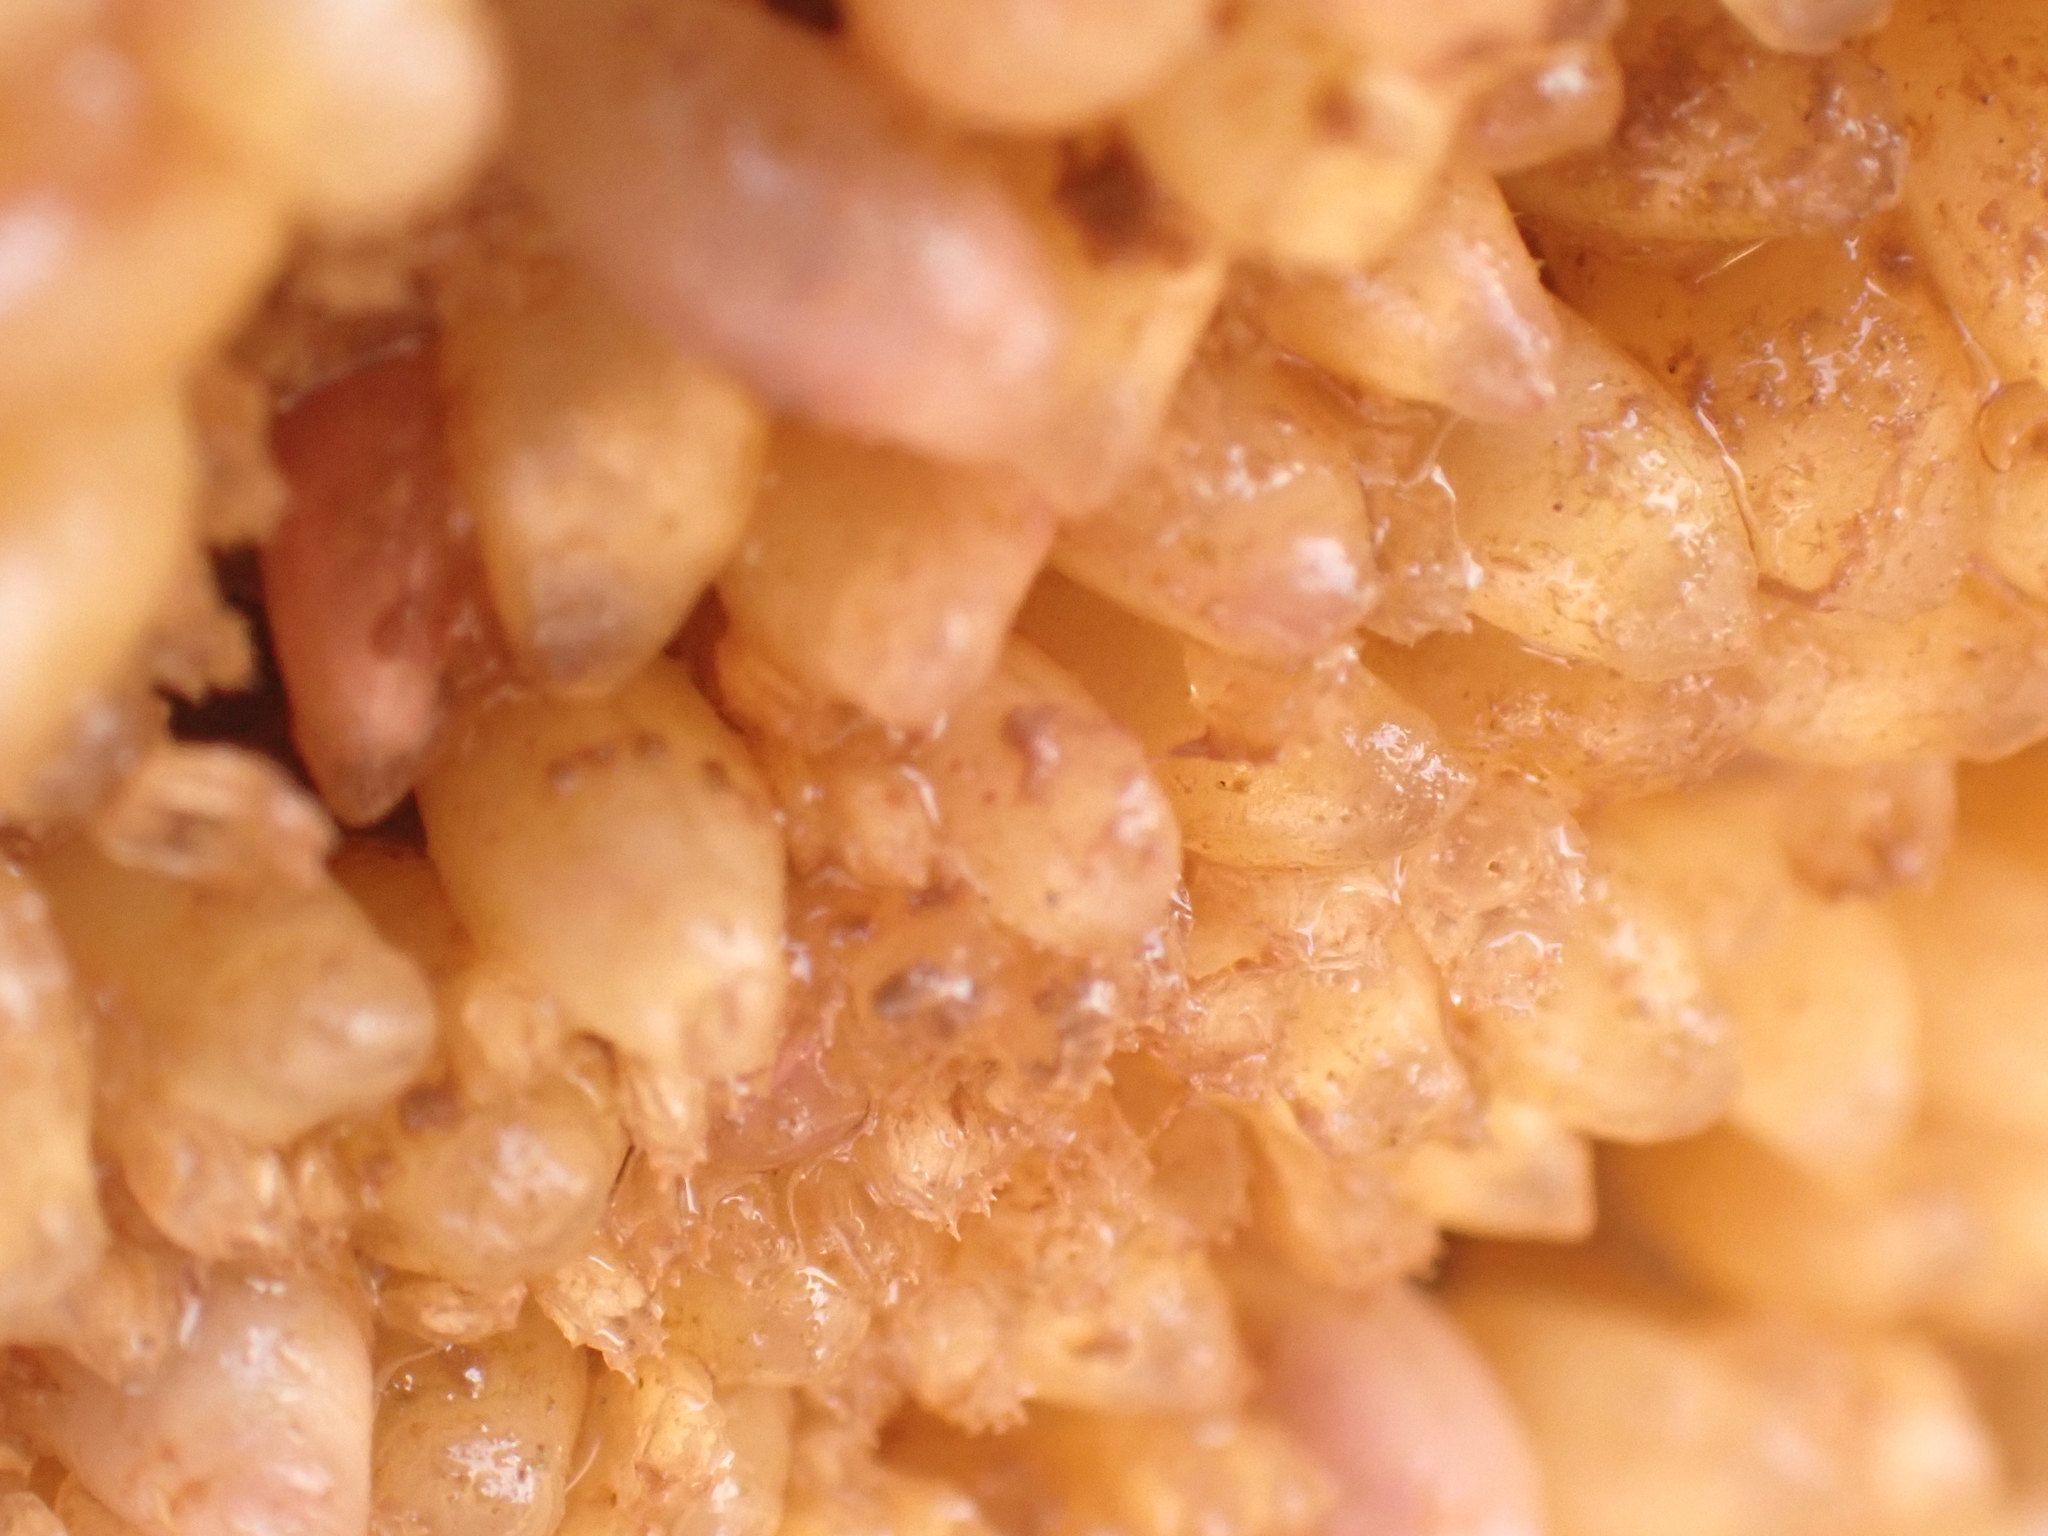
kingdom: Animalia
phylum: Mollusca
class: Gastropoda
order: Neogastropoda
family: Muricidae
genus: Nucella
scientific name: Nucella lapillus
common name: Dog whelk
